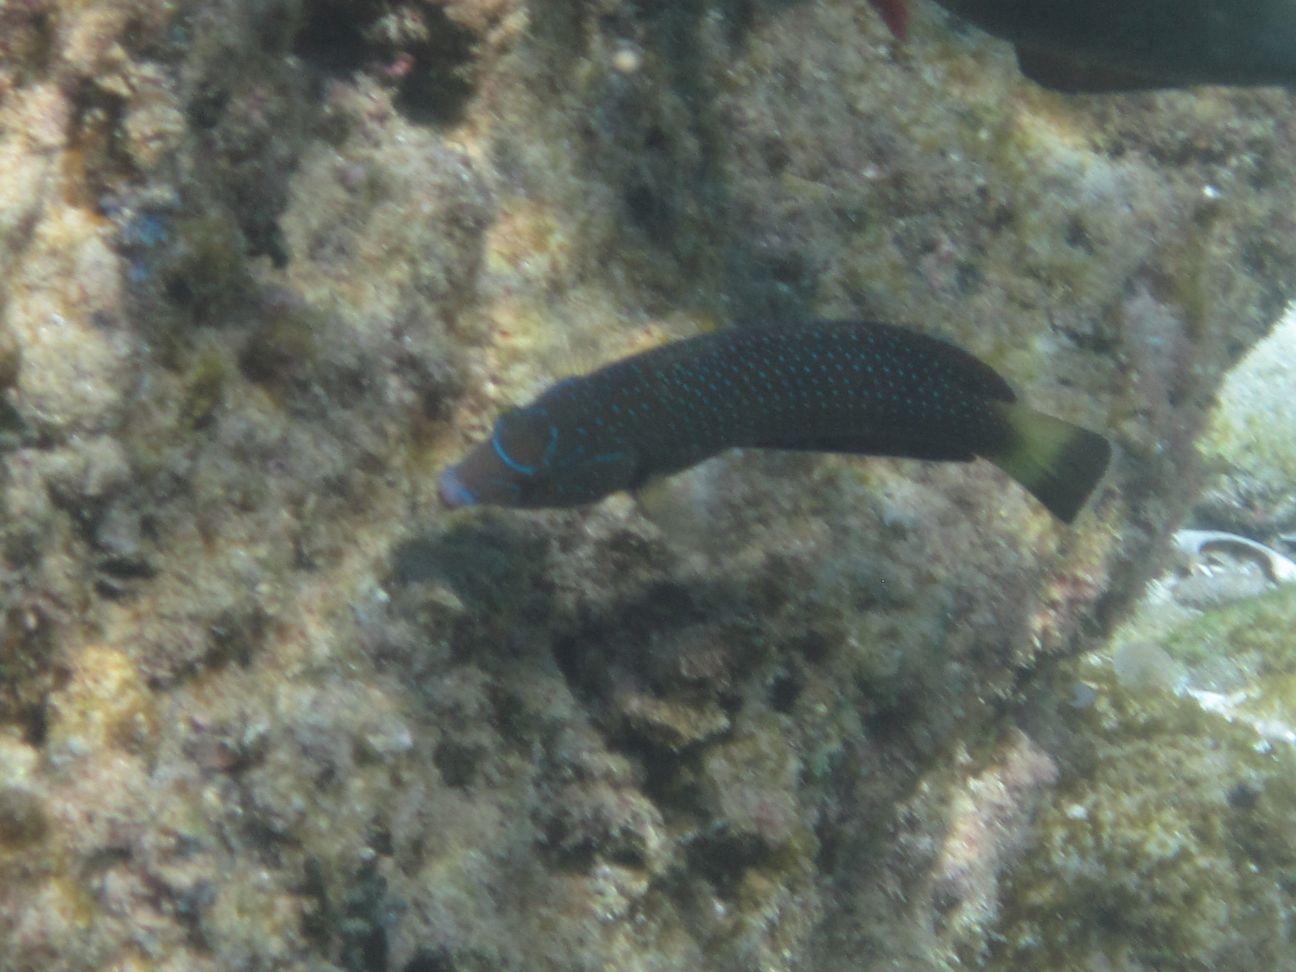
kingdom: Animalia
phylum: Chordata
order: Perciformes
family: Labridae
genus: Anampses
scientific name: Anampses caeruleopunctatus
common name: Bluespotted wrasse
